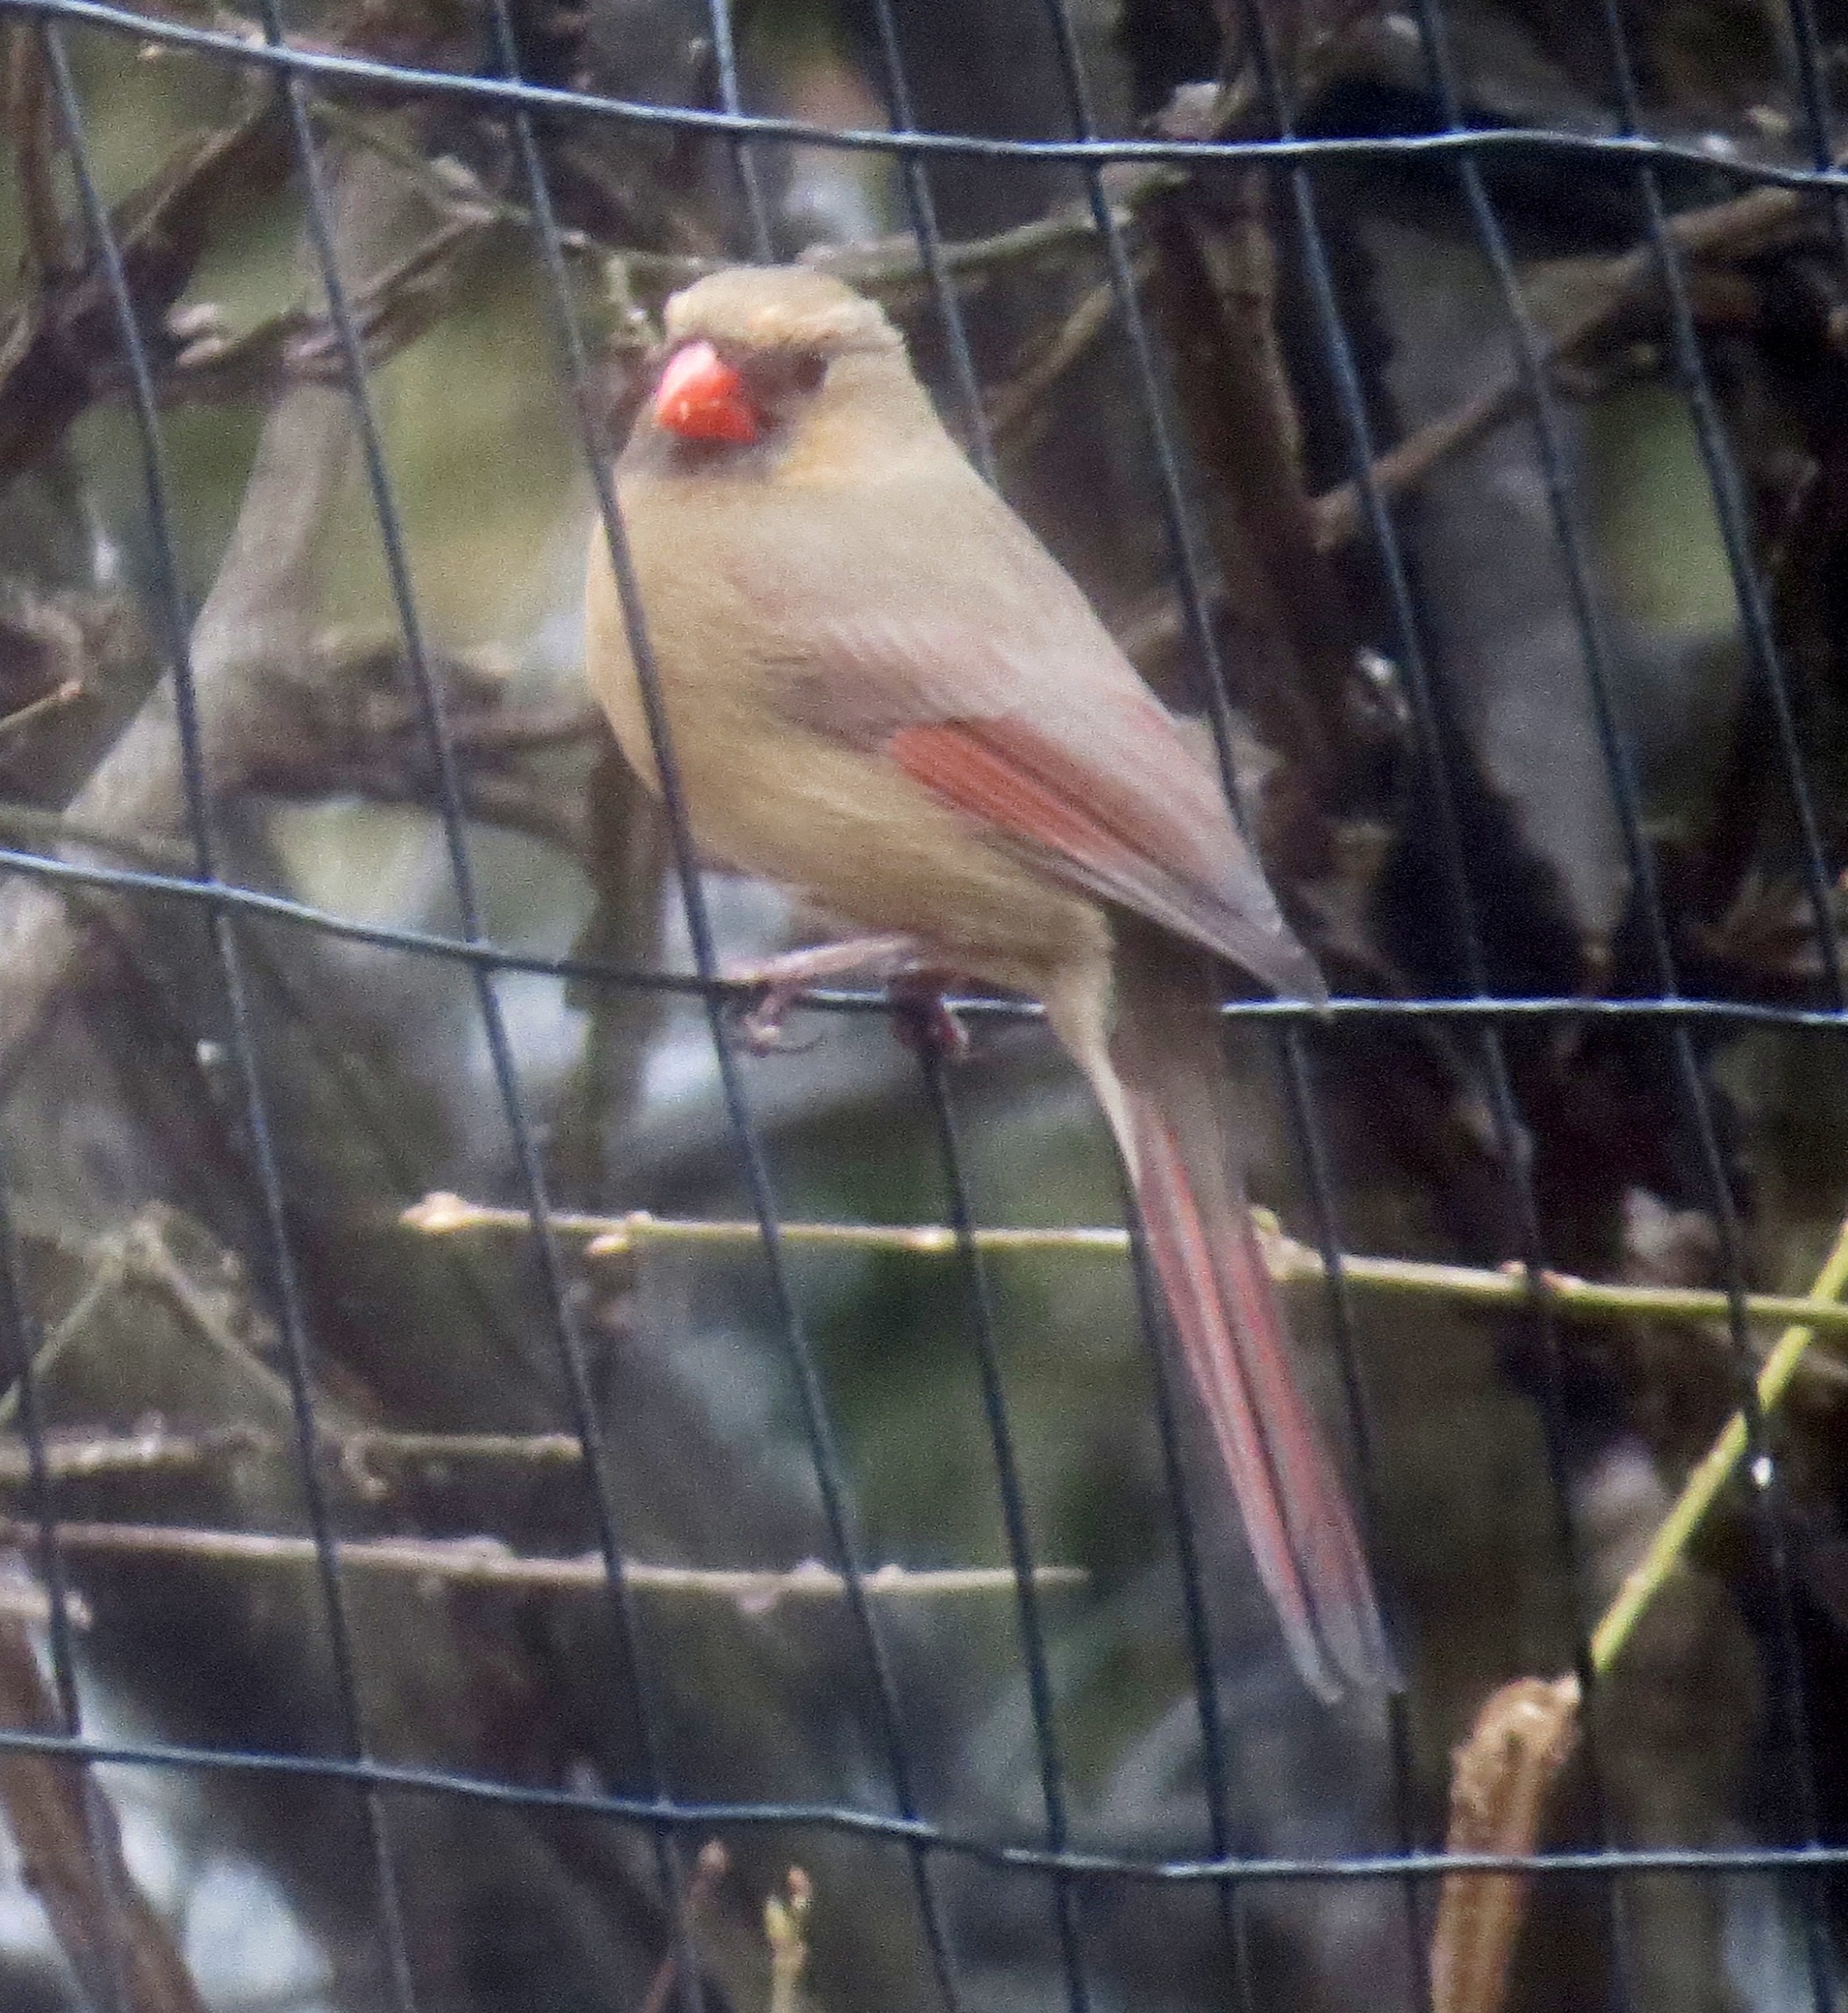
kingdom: Animalia
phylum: Chordata
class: Aves
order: Passeriformes
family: Cardinalidae
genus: Cardinalis
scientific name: Cardinalis cardinalis
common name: Northern cardinal
